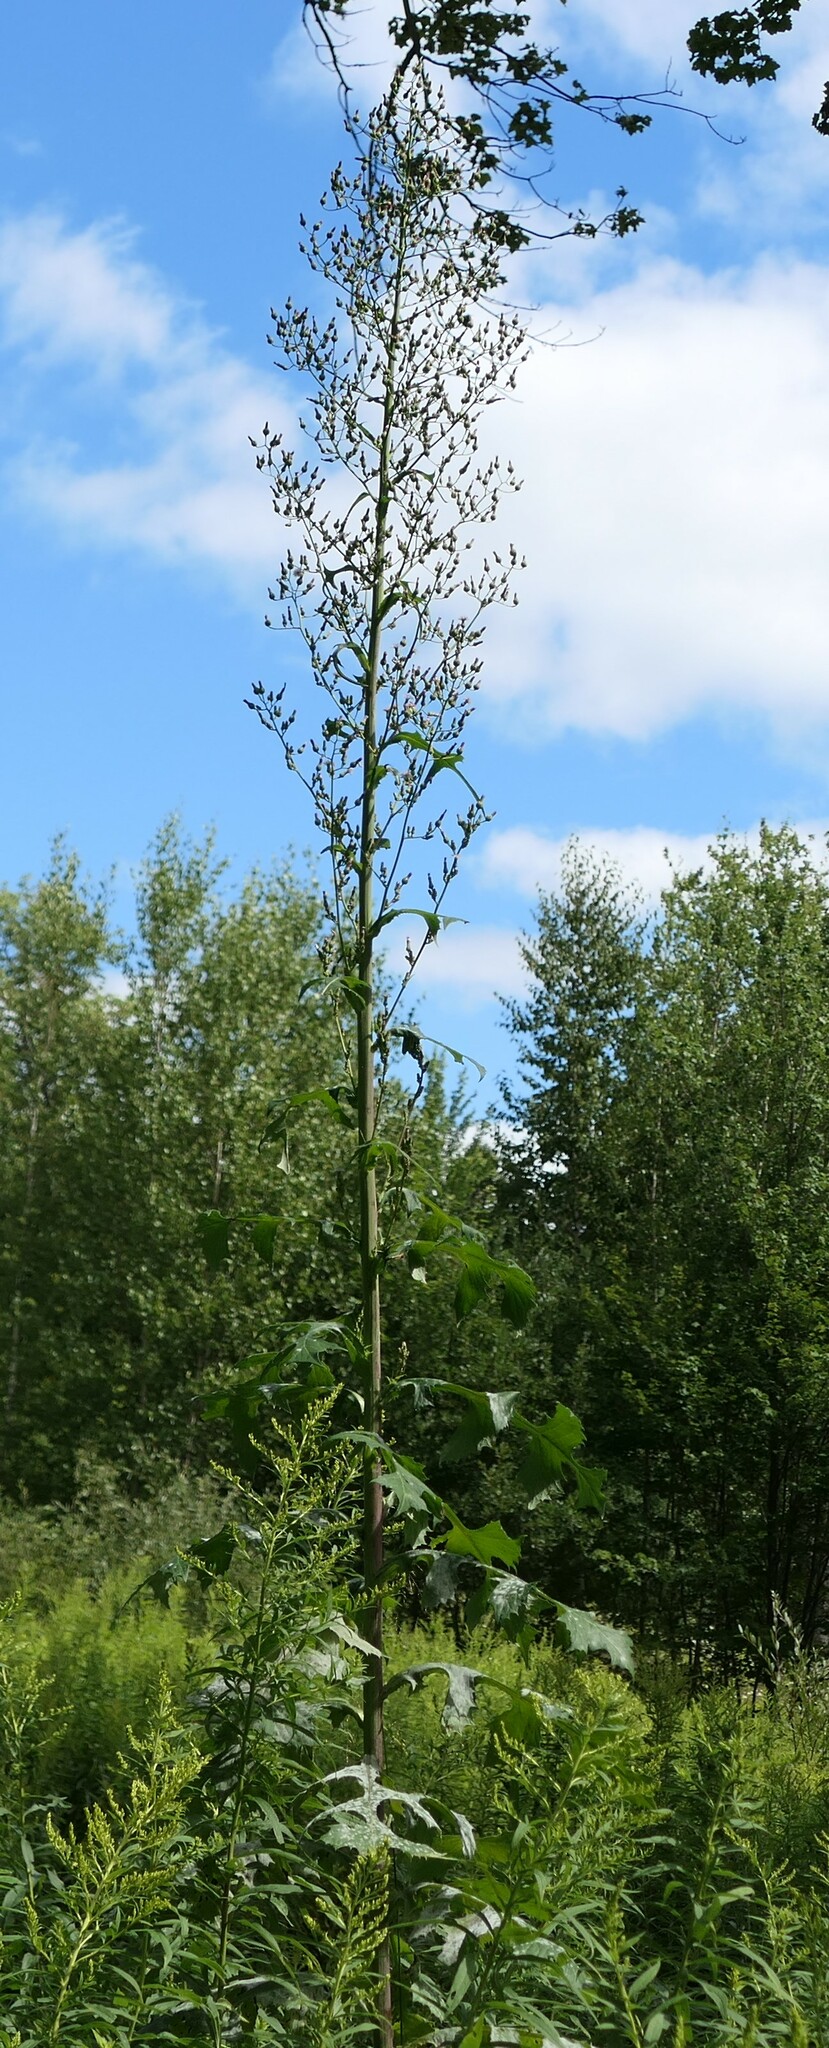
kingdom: Plantae
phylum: Tracheophyta
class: Magnoliopsida
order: Asterales
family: Asteraceae
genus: Lactuca
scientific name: Lactuca biennis
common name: Blue wood lettuce
